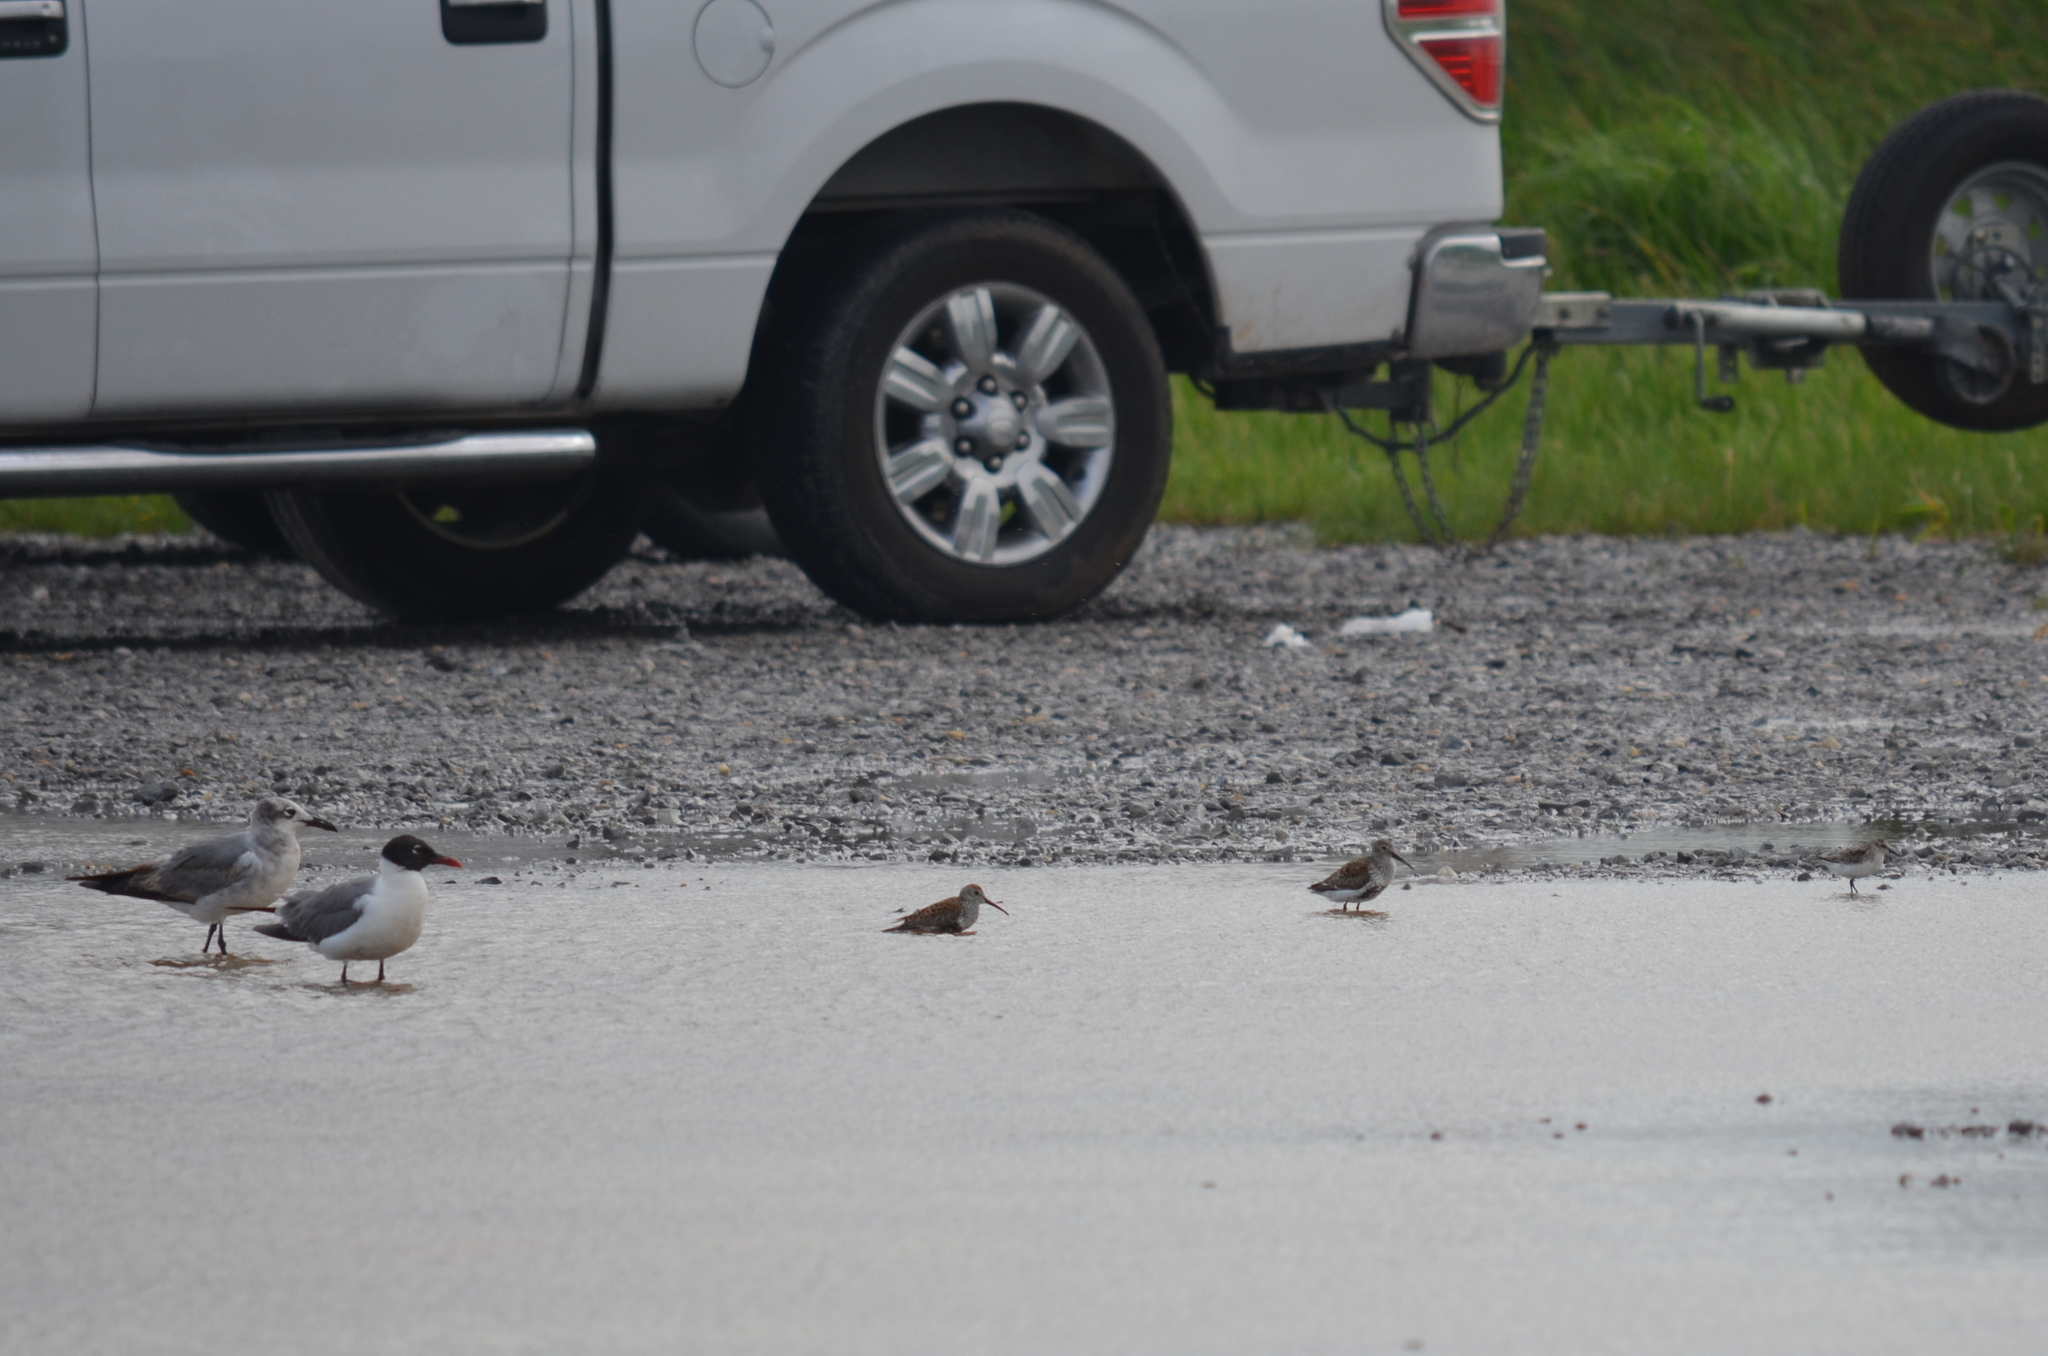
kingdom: Animalia
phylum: Chordata
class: Aves
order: Charadriiformes
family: Scolopacidae
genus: Calidris
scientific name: Calidris alpina
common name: Dunlin
